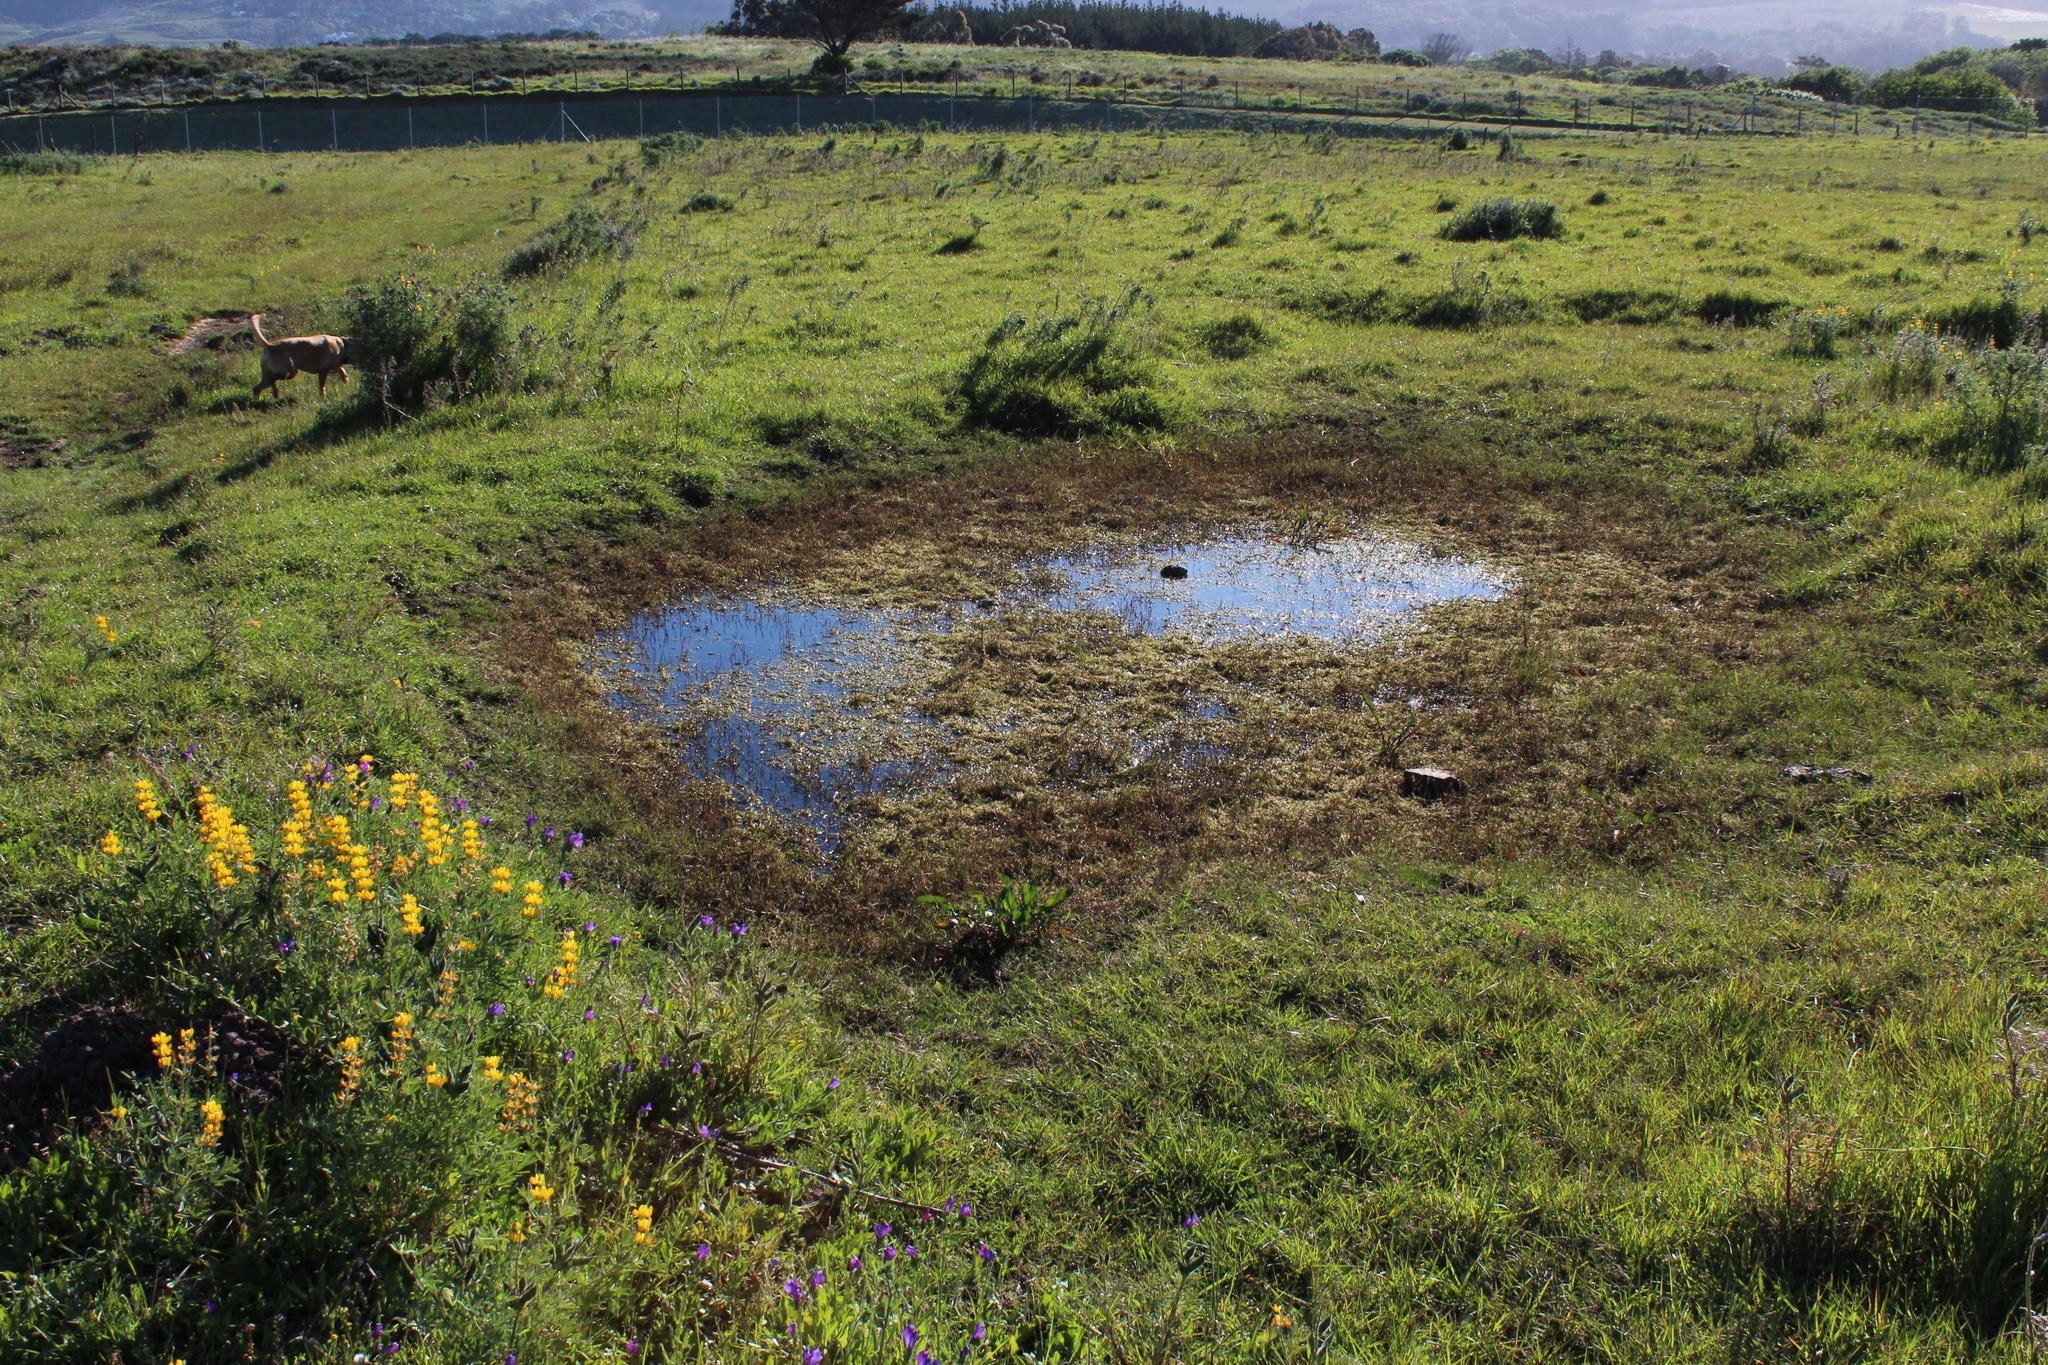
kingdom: Plantae
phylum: Tracheophyta
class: Magnoliopsida
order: Saxifragales
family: Crassulaceae
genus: Crassula
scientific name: Crassula natans
